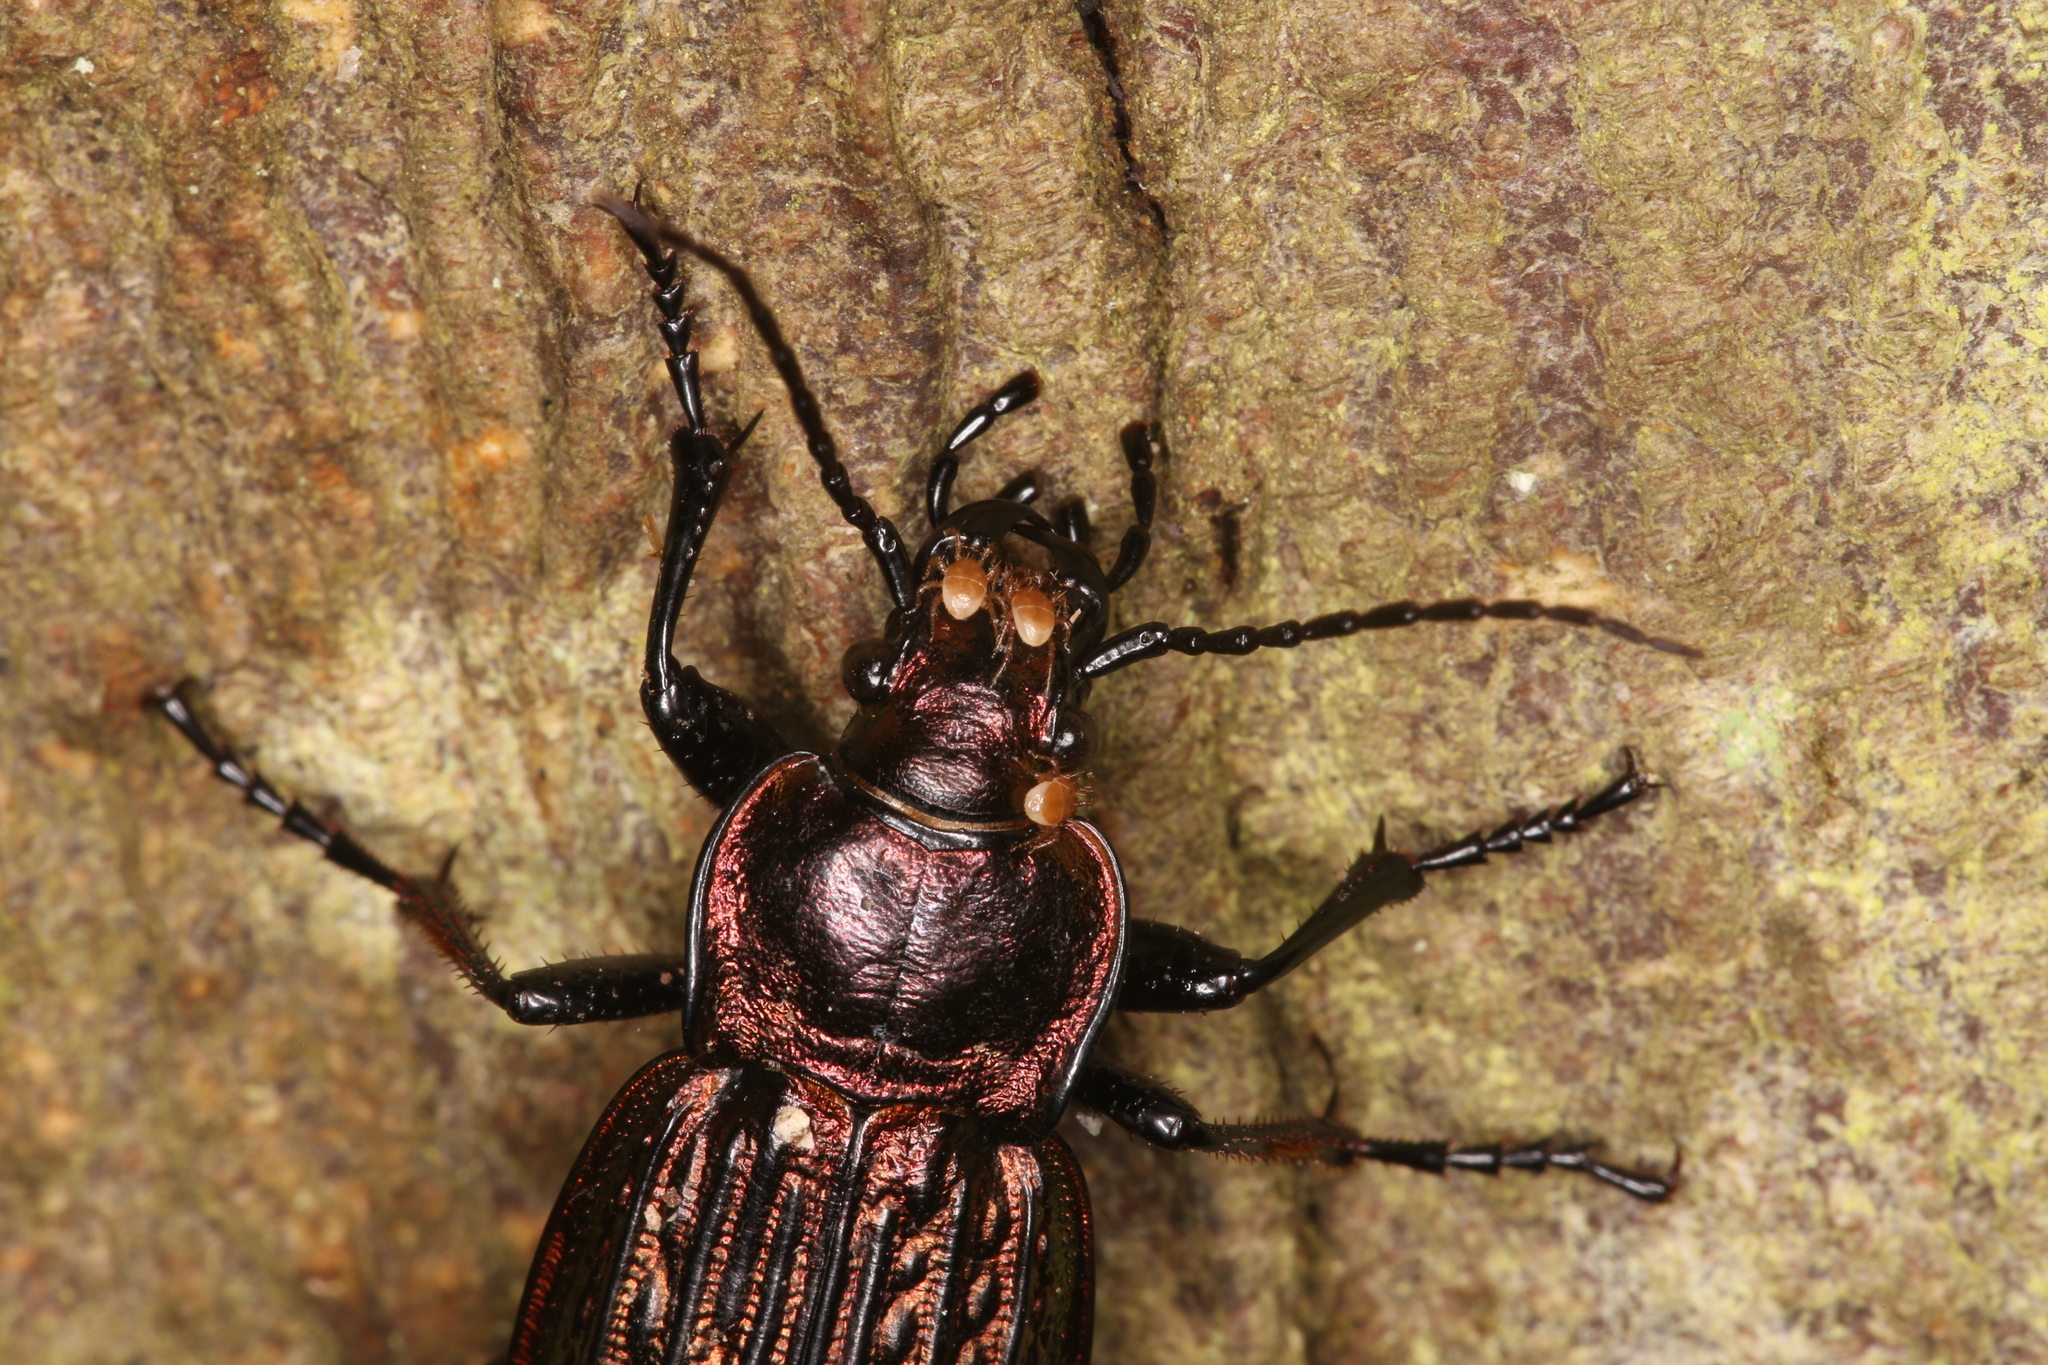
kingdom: Animalia
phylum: Arthropoda
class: Insecta
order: Coleoptera
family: Carabidae
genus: Carabus
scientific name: Carabus ulrichii
